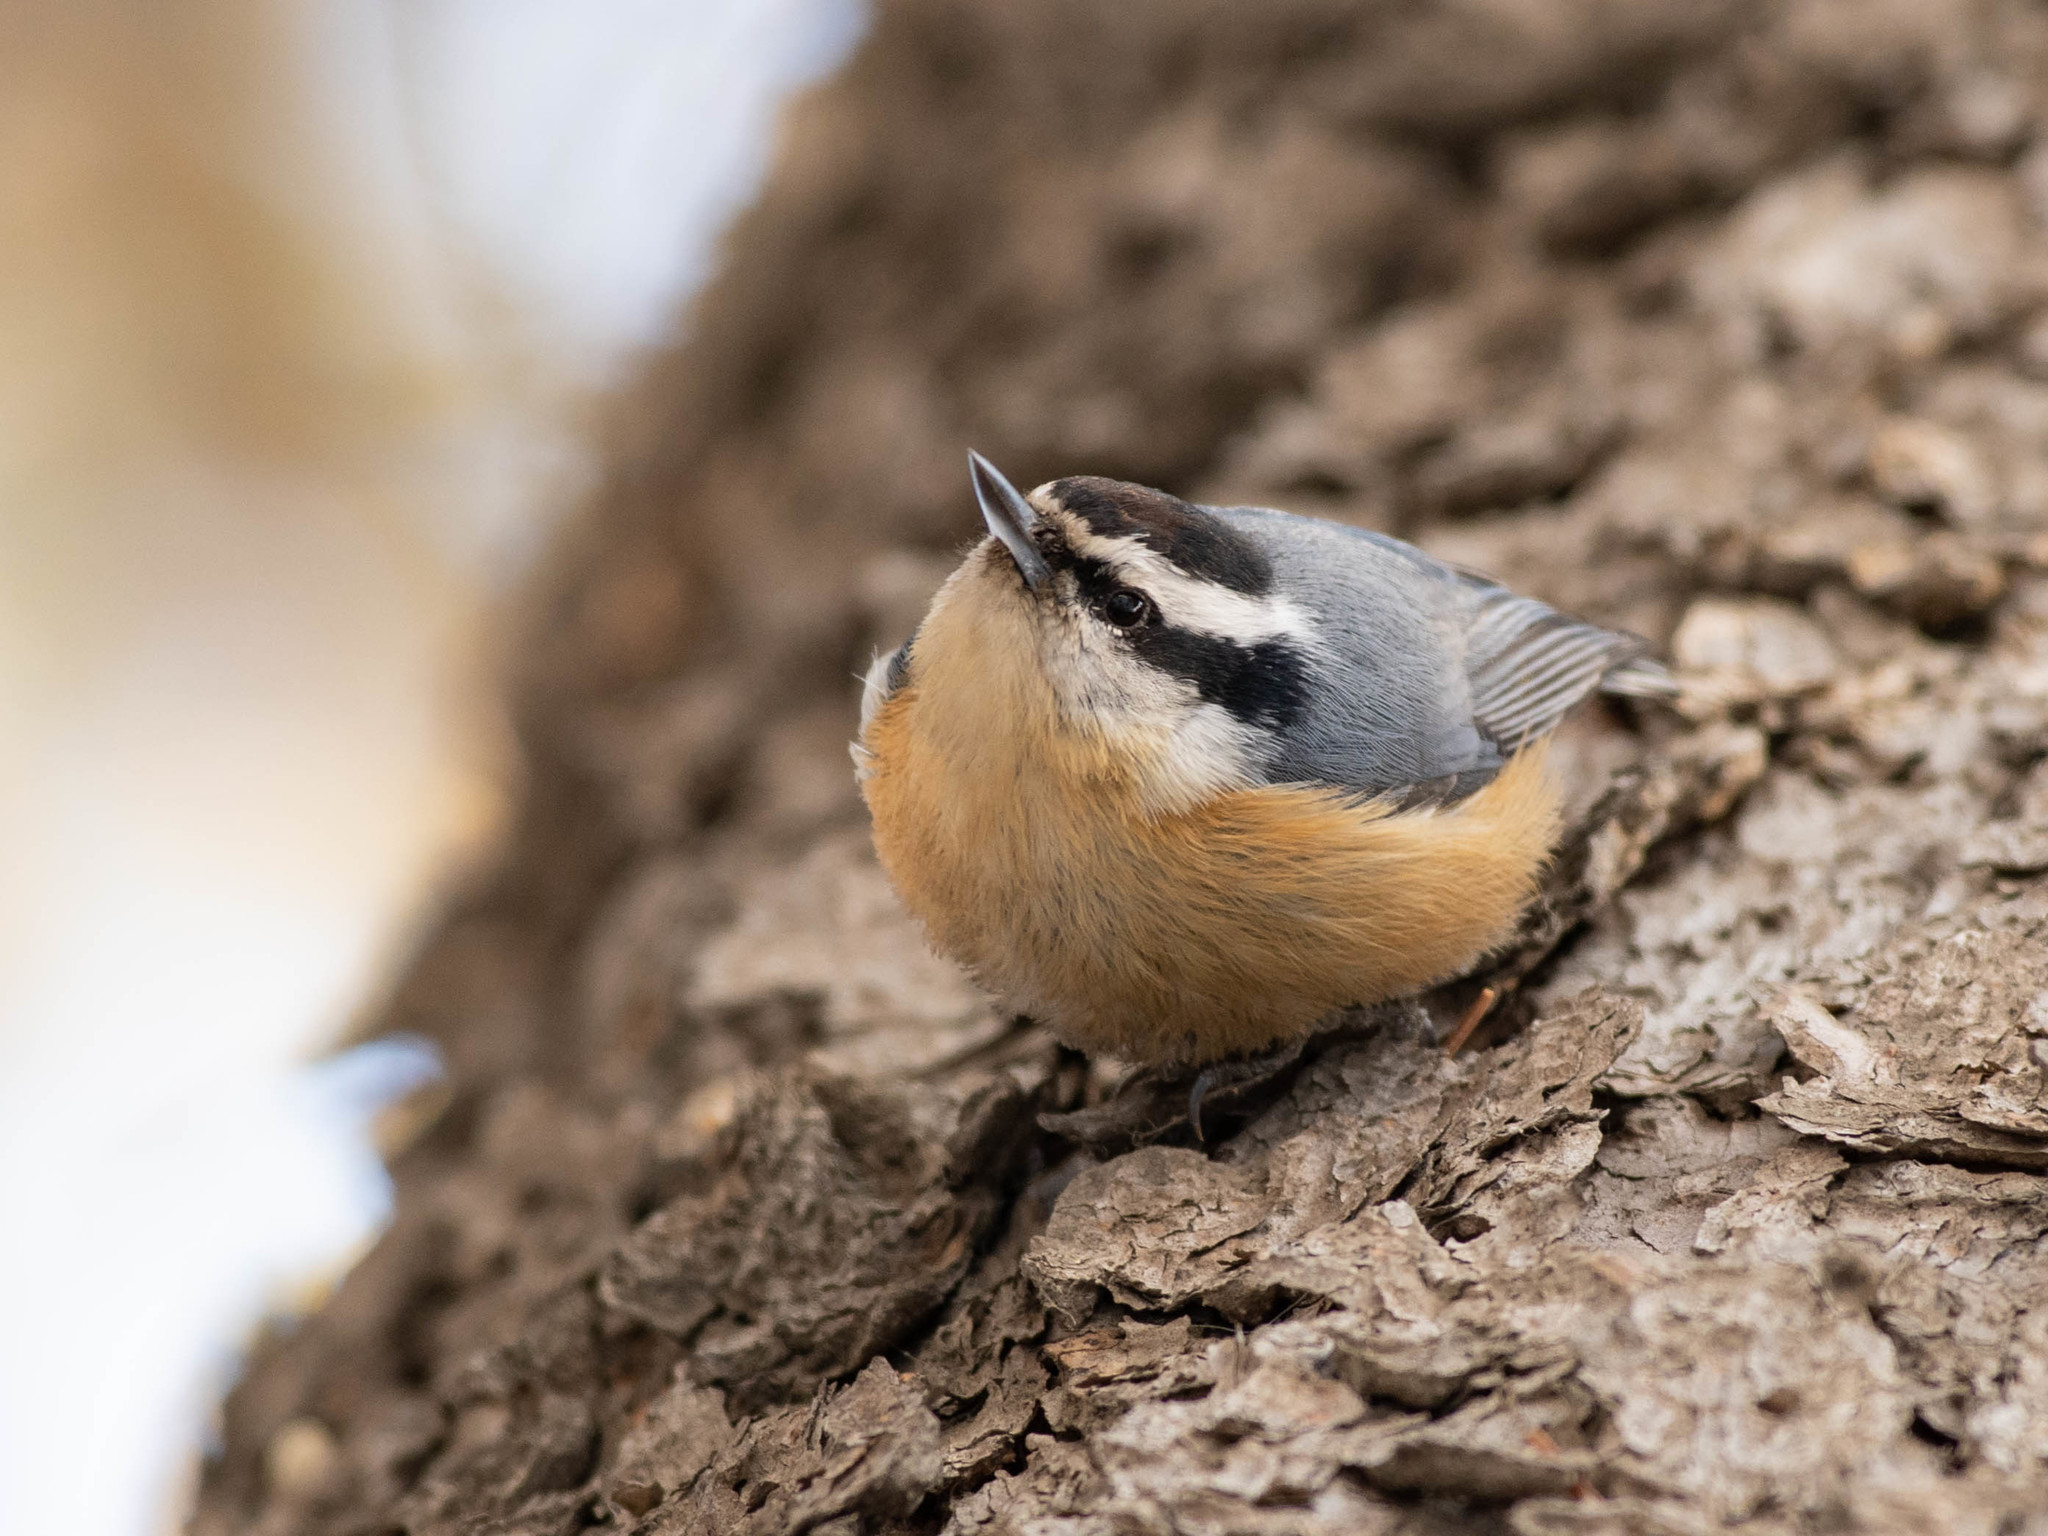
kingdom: Animalia
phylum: Chordata
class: Aves
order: Passeriformes
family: Sittidae
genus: Sitta
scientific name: Sitta canadensis
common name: Red-breasted nuthatch
